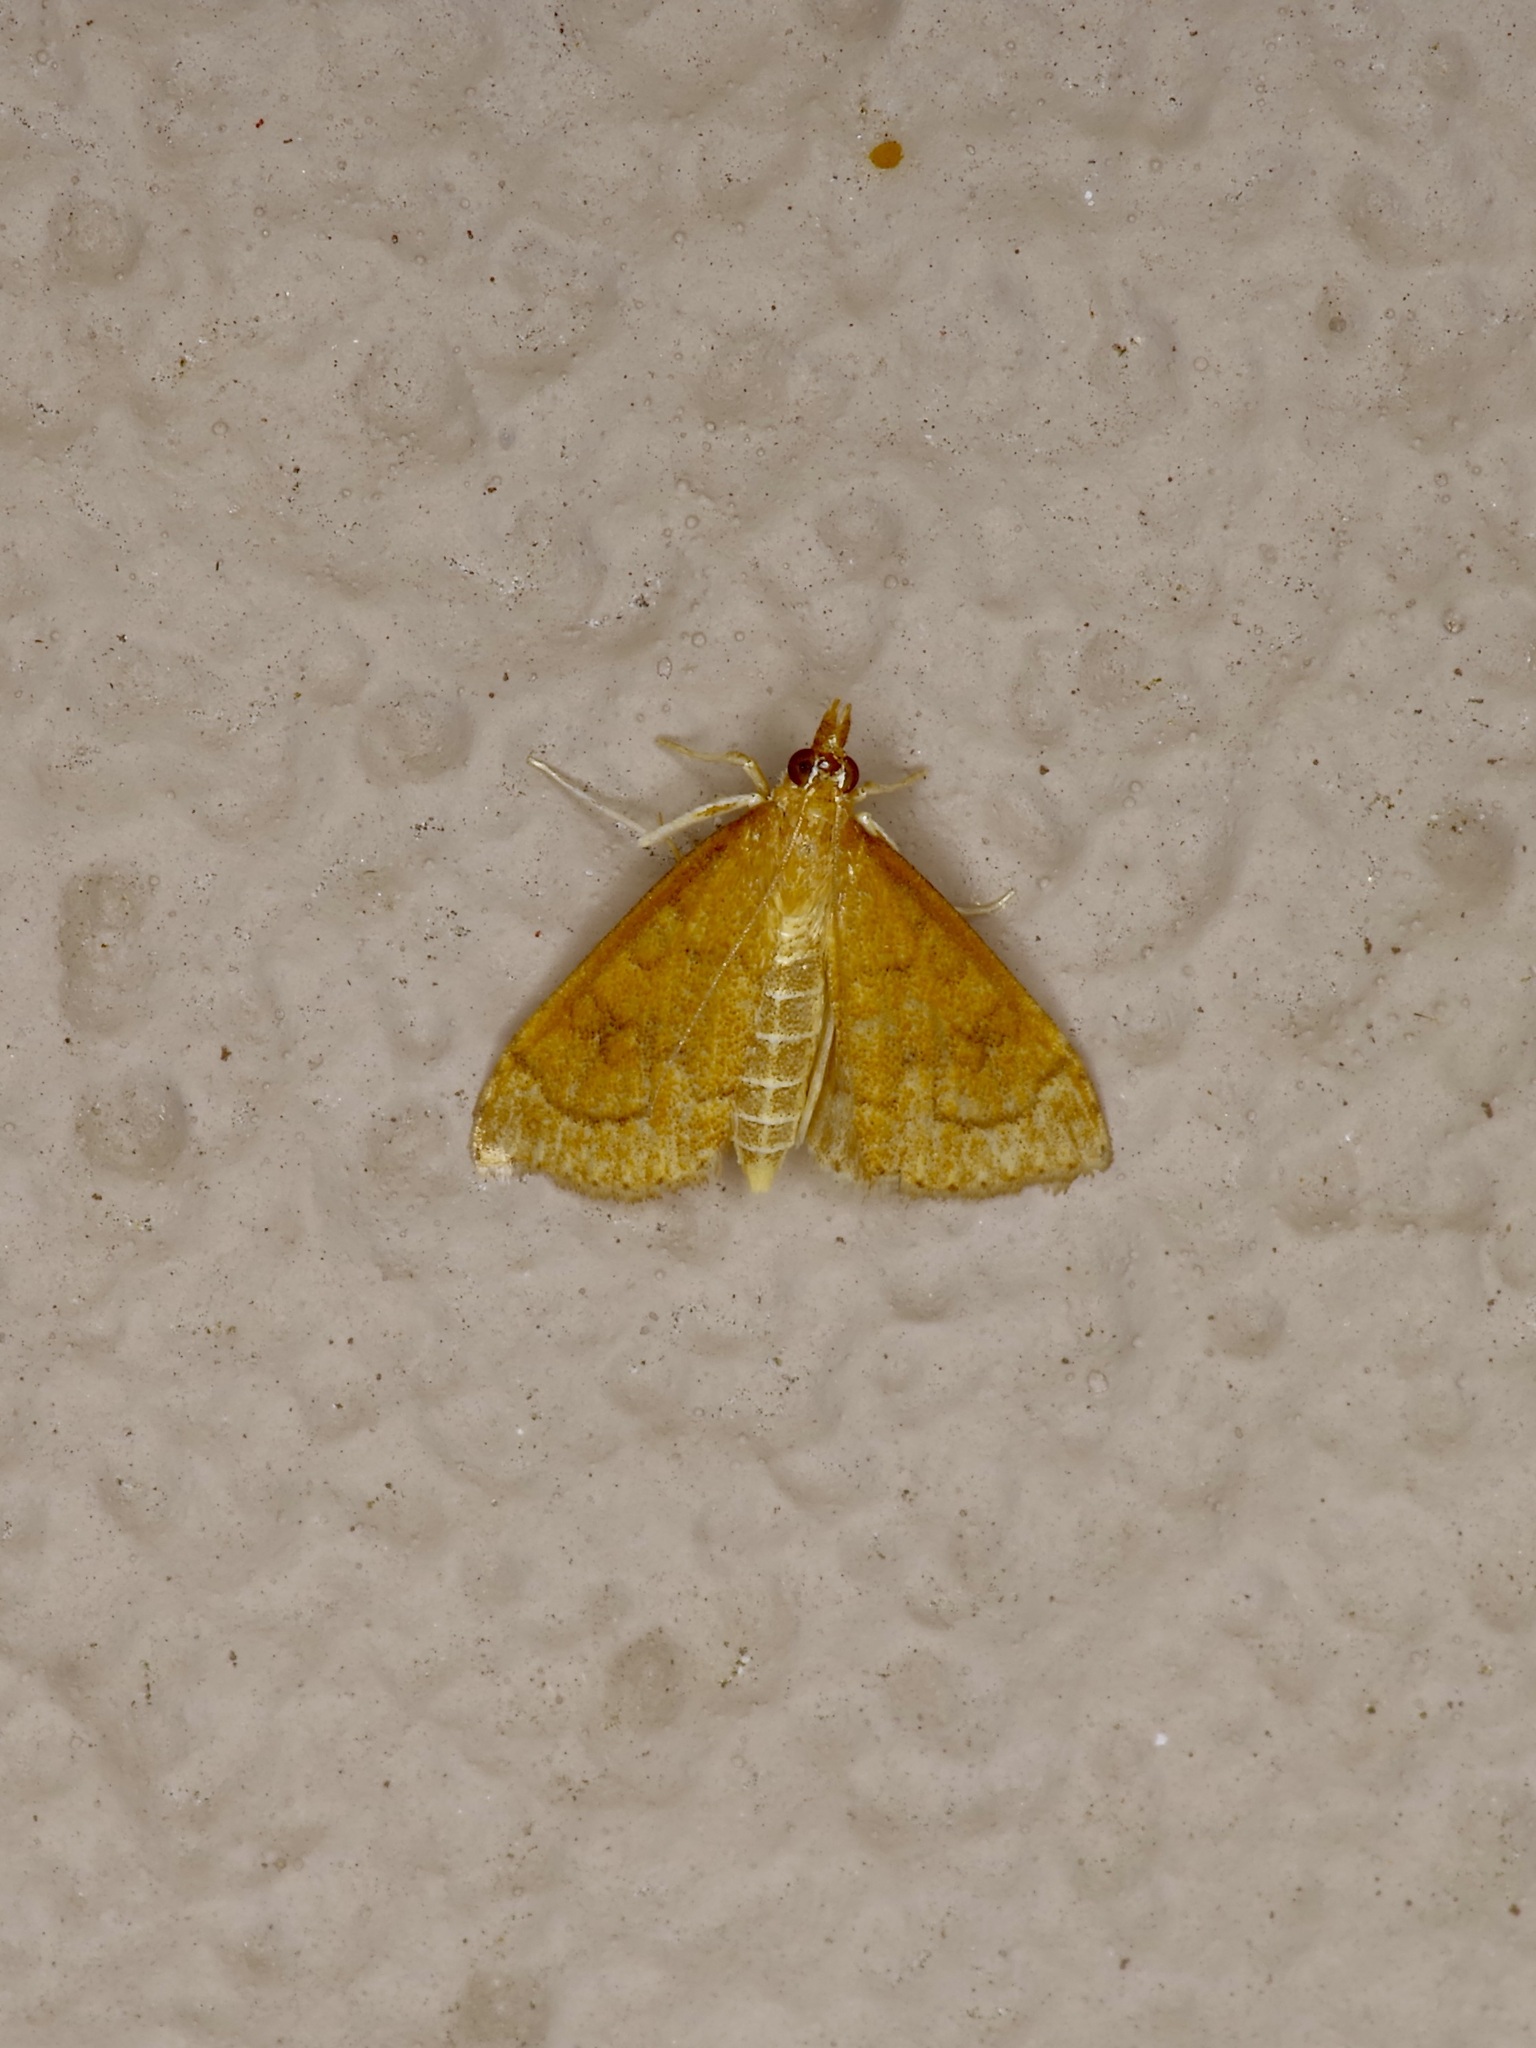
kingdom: Animalia
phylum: Arthropoda
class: Insecta
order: Lepidoptera
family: Crambidae
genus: Udea
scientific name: Udea rubigalis
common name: Celery leaftier moth
